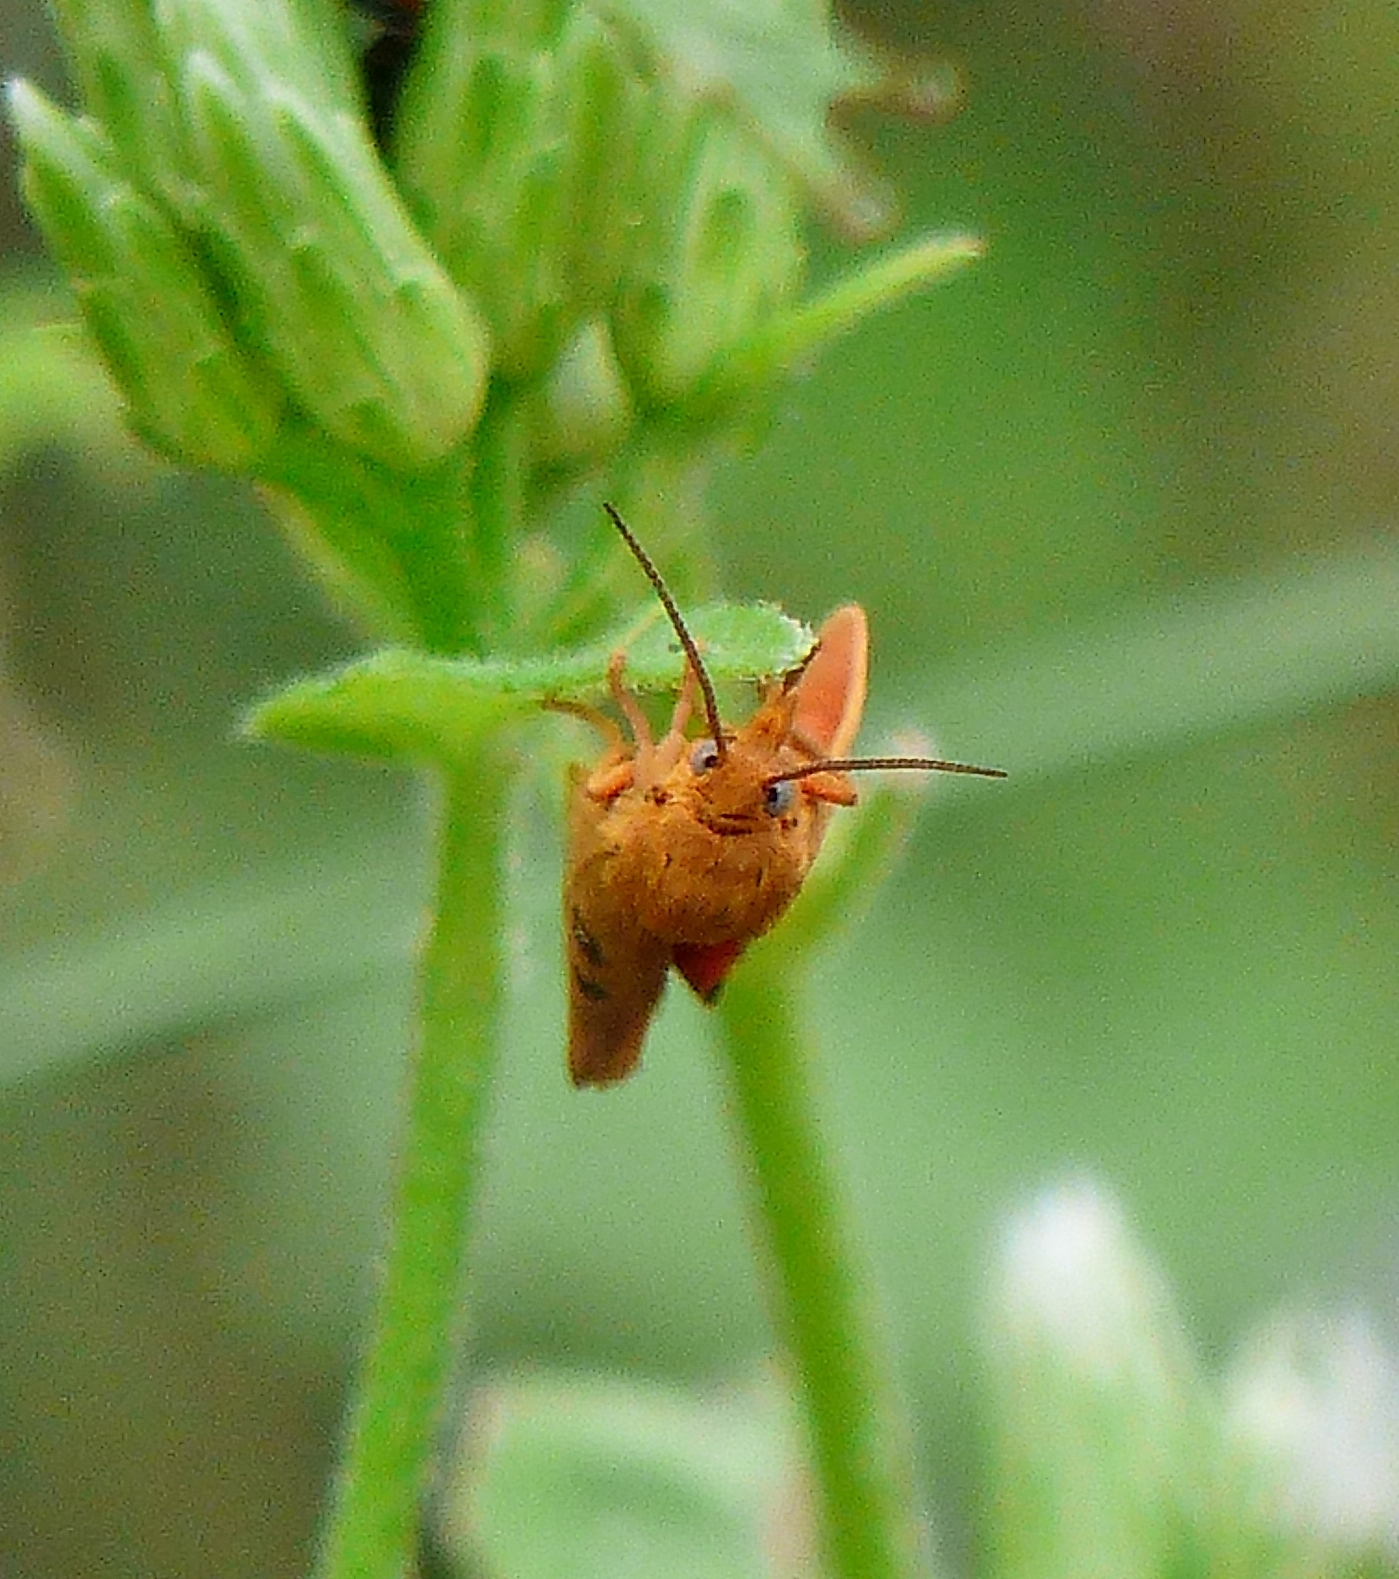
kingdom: Animalia
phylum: Arthropoda
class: Insecta
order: Lepidoptera
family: Erebidae
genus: Virbia
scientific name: Virbia aurantiaca
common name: Orange virbia moth
